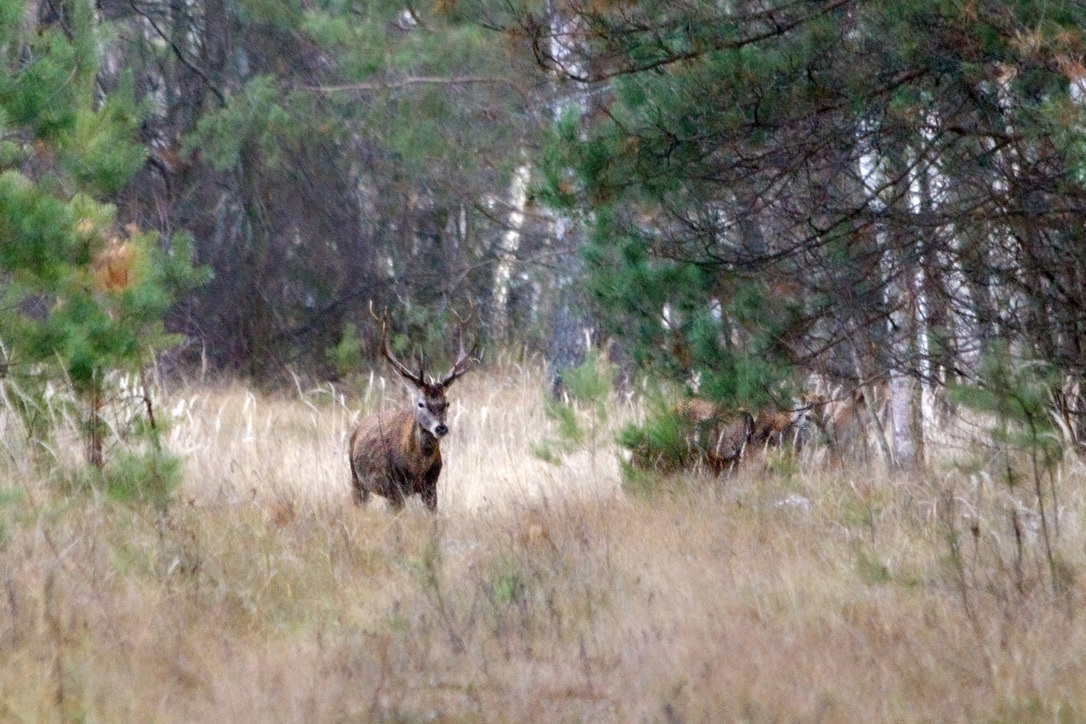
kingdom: Animalia
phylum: Chordata
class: Mammalia
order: Artiodactyla
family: Cervidae
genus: Cervus
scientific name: Cervus elaphus
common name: Red deer
